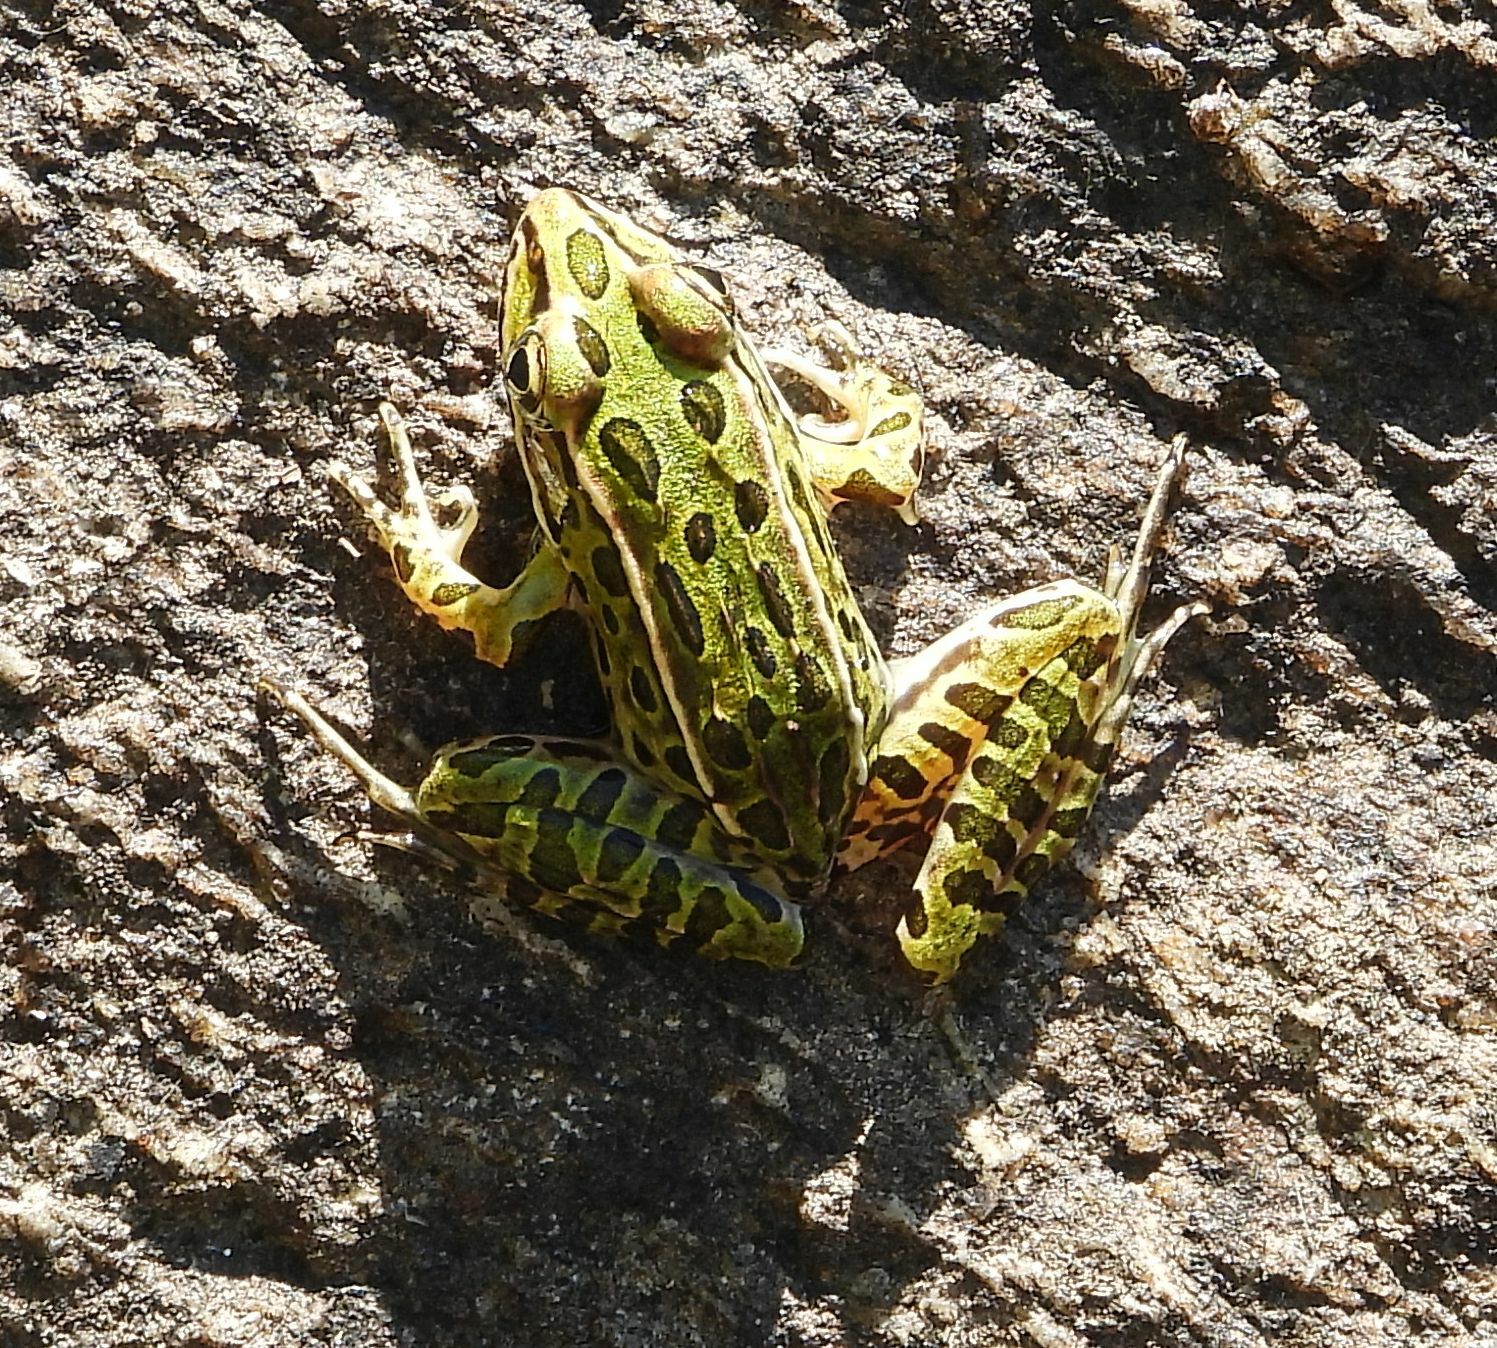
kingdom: Animalia
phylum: Chordata
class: Amphibia
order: Anura
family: Ranidae
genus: Lithobates
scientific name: Lithobates pipiens
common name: Northern leopard frog
